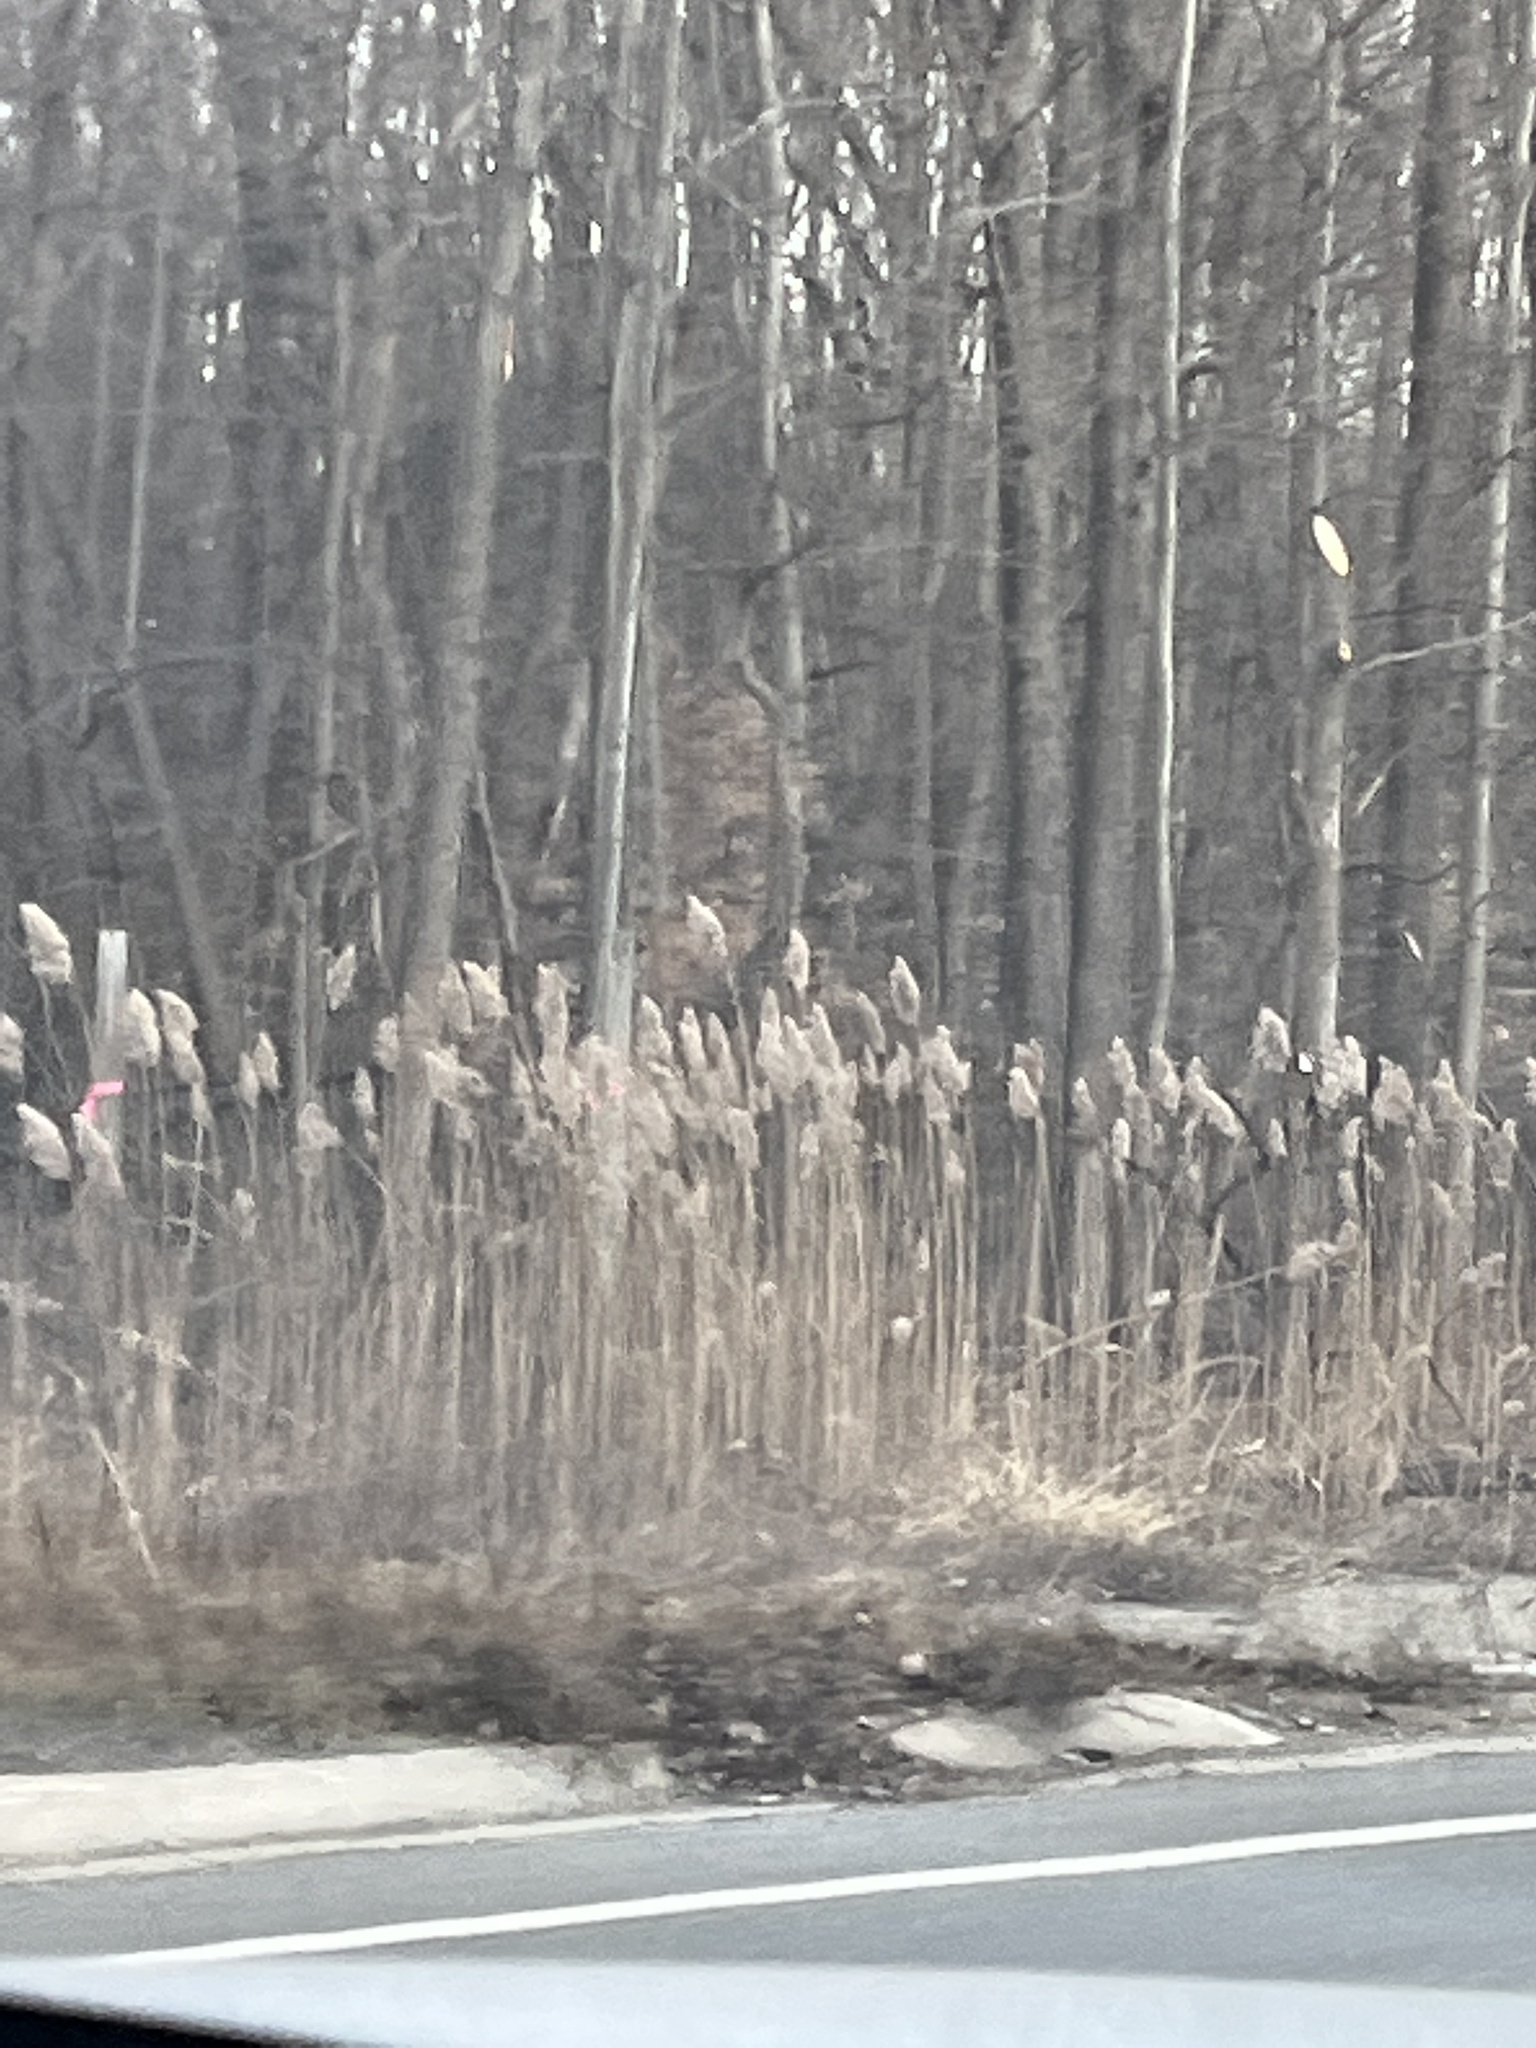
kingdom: Plantae
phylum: Tracheophyta
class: Liliopsida
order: Poales
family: Poaceae
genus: Phragmites
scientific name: Phragmites australis
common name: Common reed
